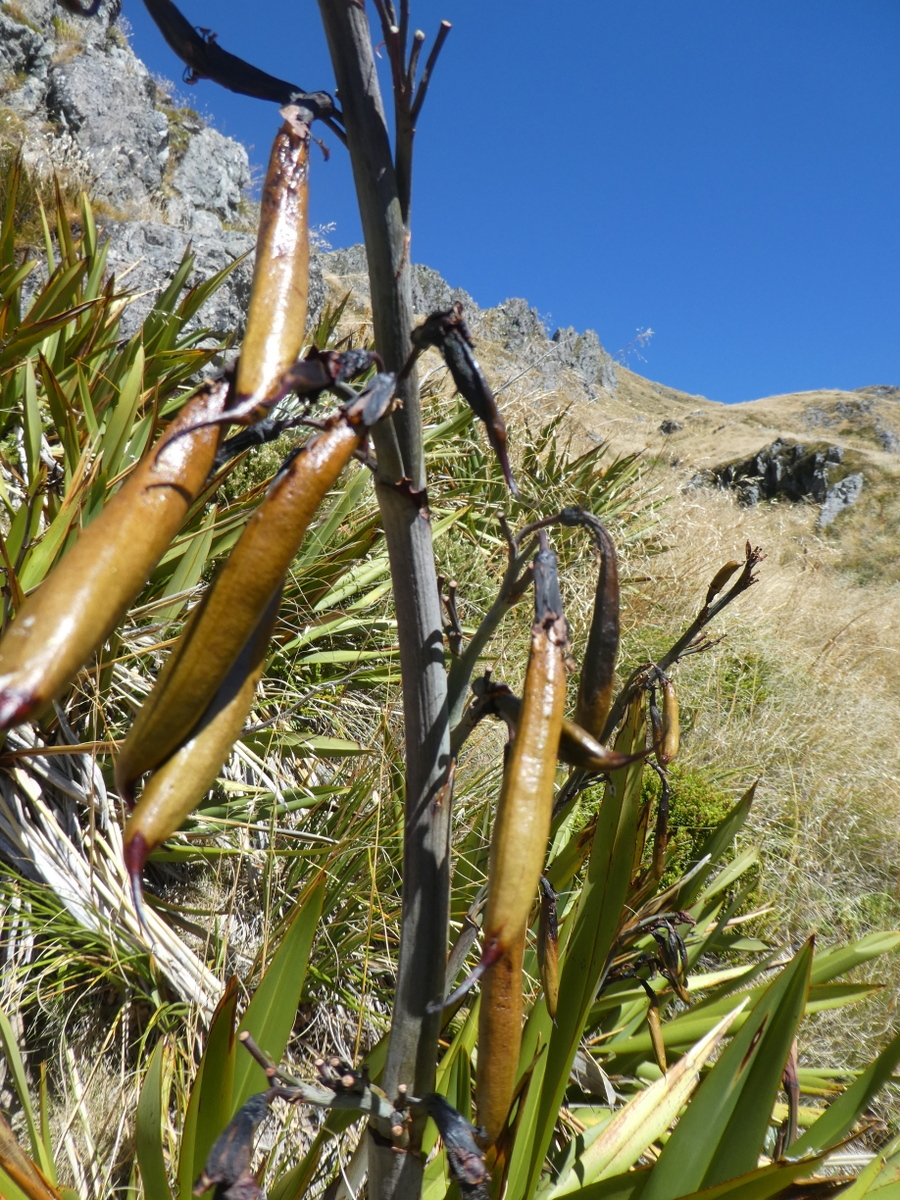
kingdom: Plantae
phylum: Tracheophyta
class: Liliopsida
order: Asparagales
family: Asphodelaceae
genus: Phormium
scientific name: Phormium colensoi
